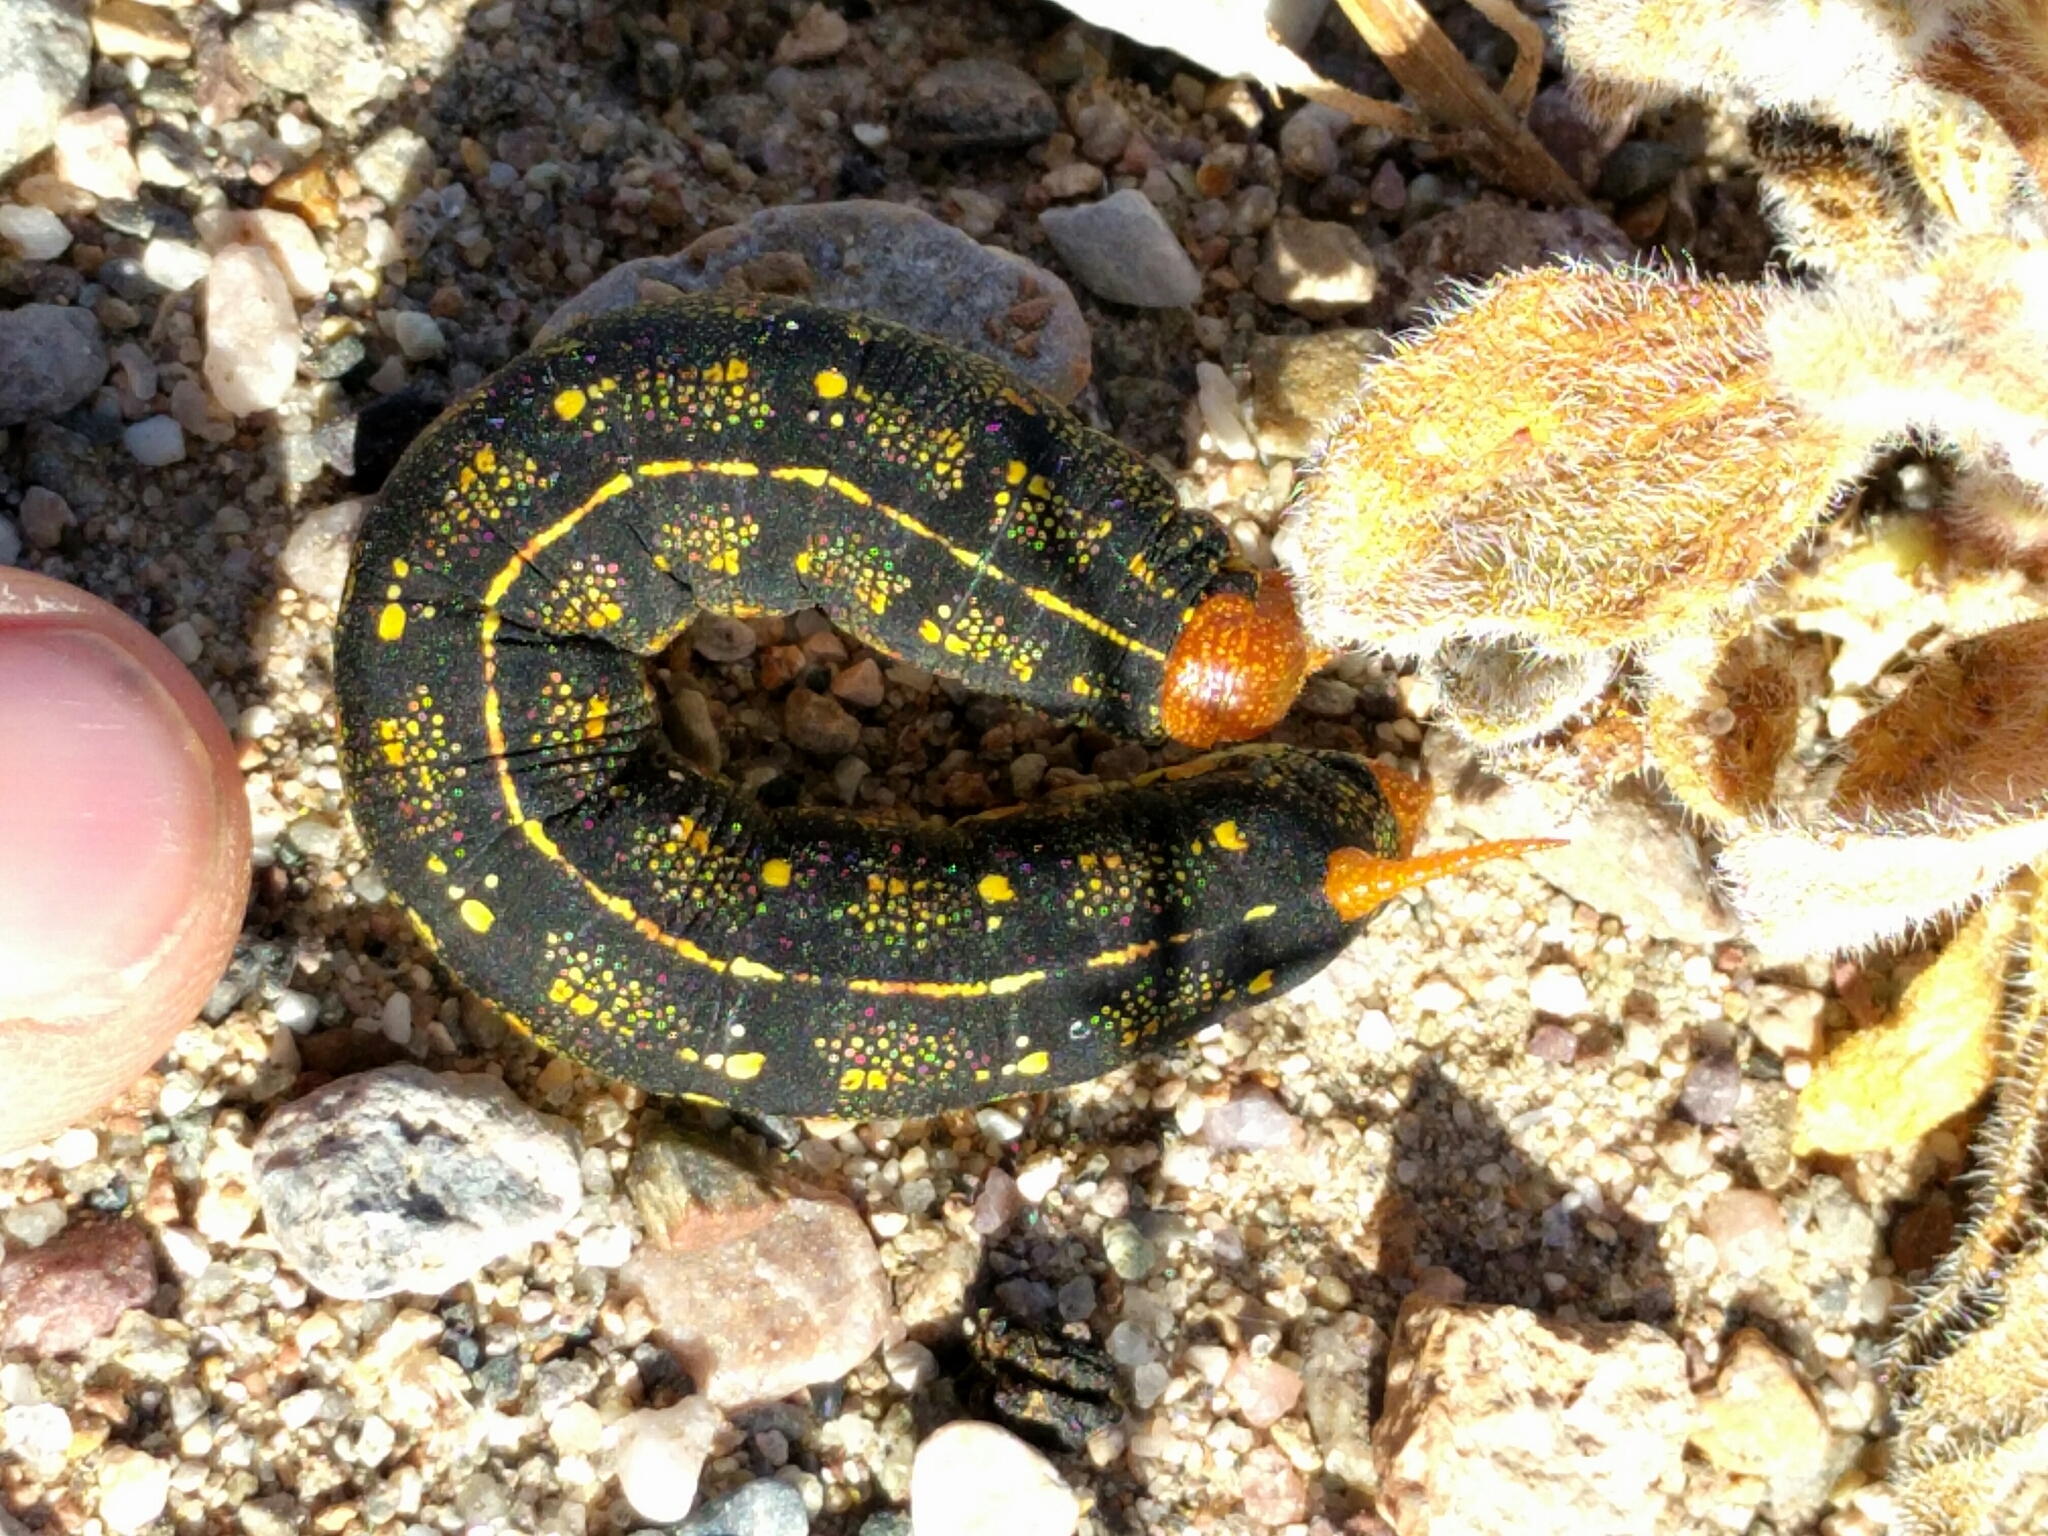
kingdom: Animalia
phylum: Arthropoda
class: Insecta
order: Lepidoptera
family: Sphingidae
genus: Hyles
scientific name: Hyles lineata
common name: White-lined sphinx
